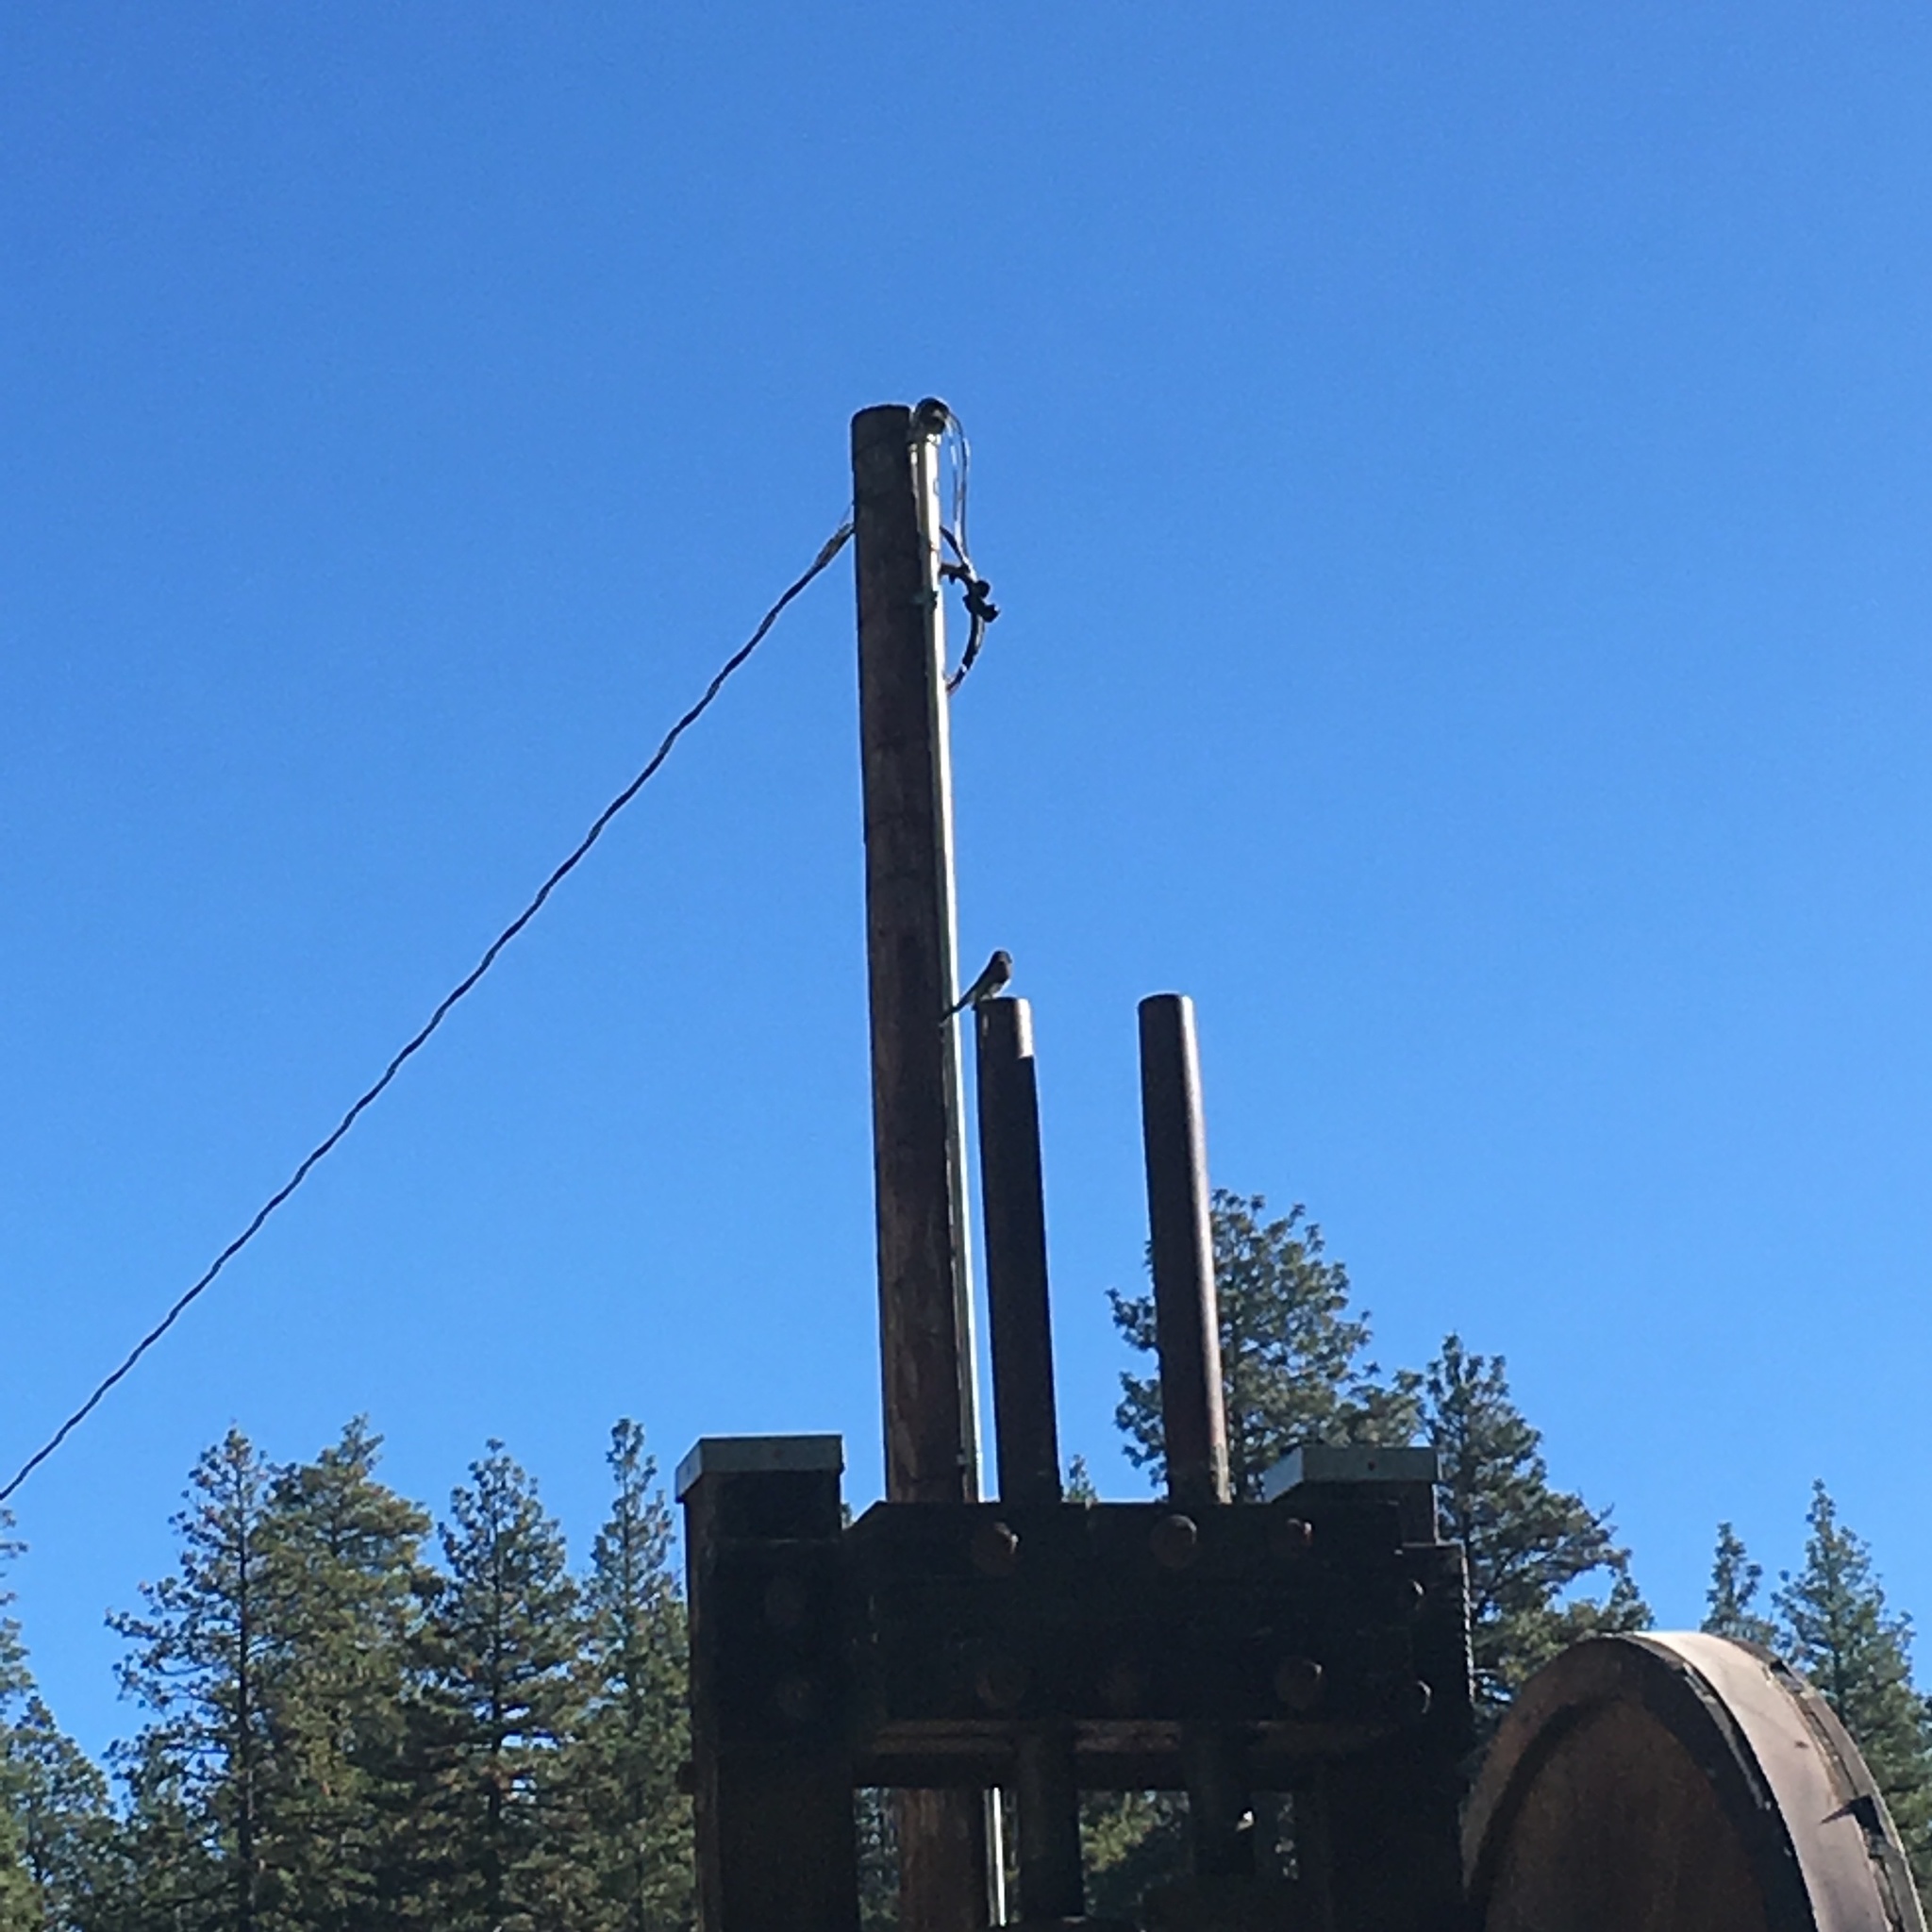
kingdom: Animalia
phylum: Chordata
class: Aves
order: Passeriformes
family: Tyrannidae
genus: Sayornis
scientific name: Sayornis nigricans
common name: Black phoebe
